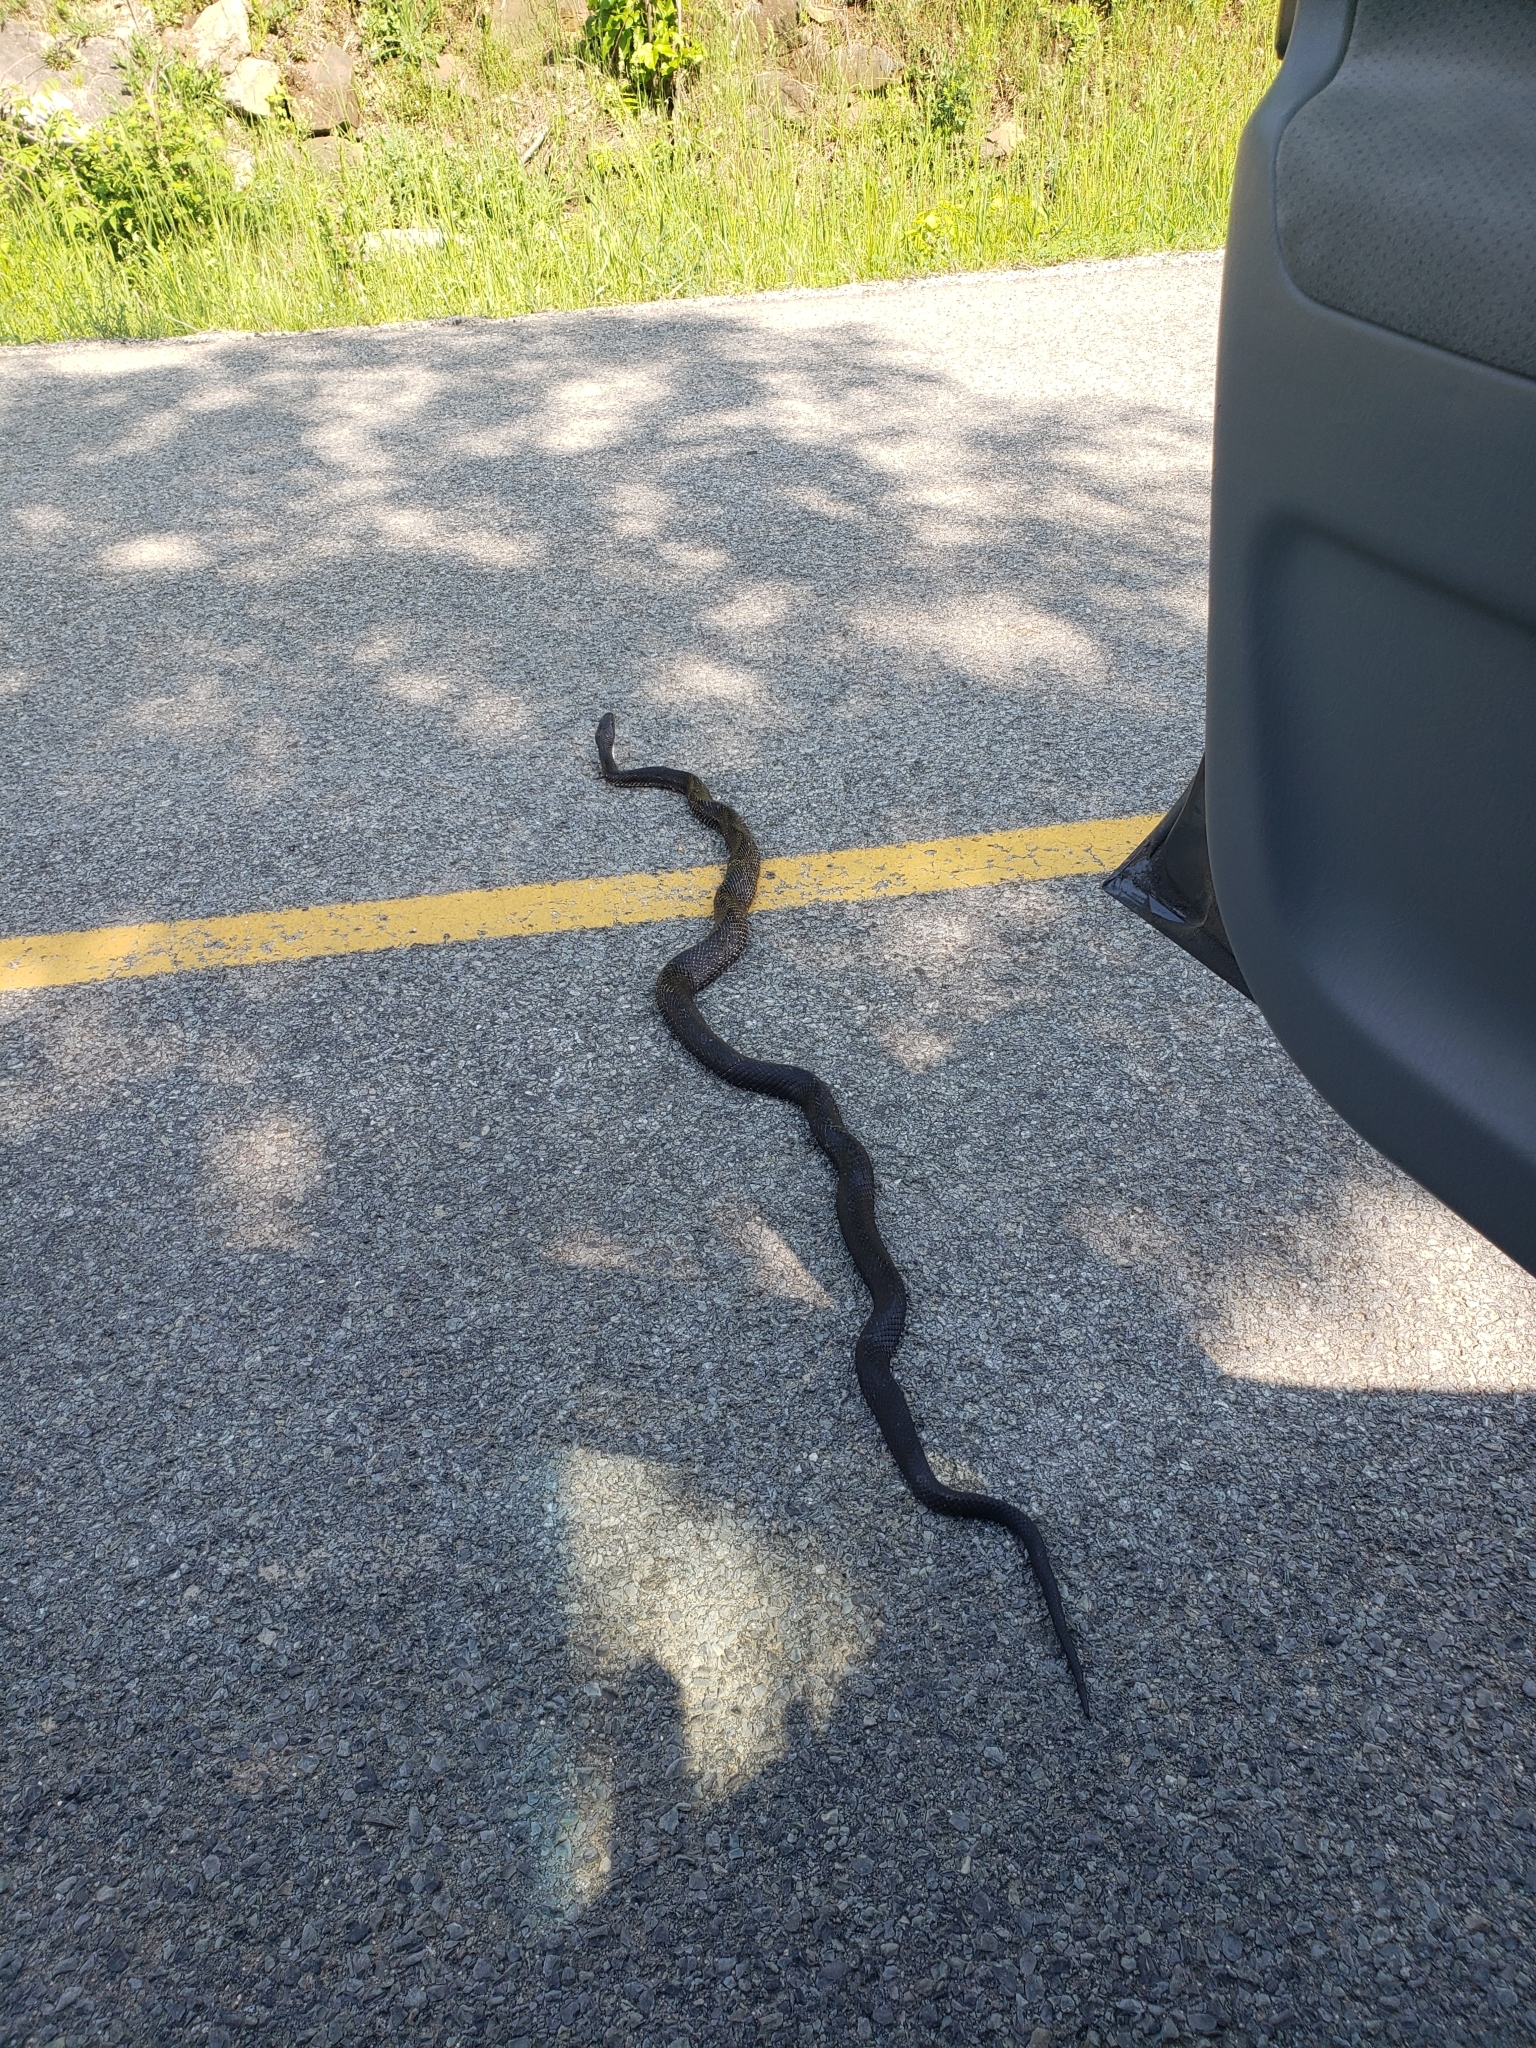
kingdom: Animalia
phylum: Chordata
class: Squamata
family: Colubridae
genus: Pantherophis
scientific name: Pantherophis spiloides
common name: Gray rat snake
